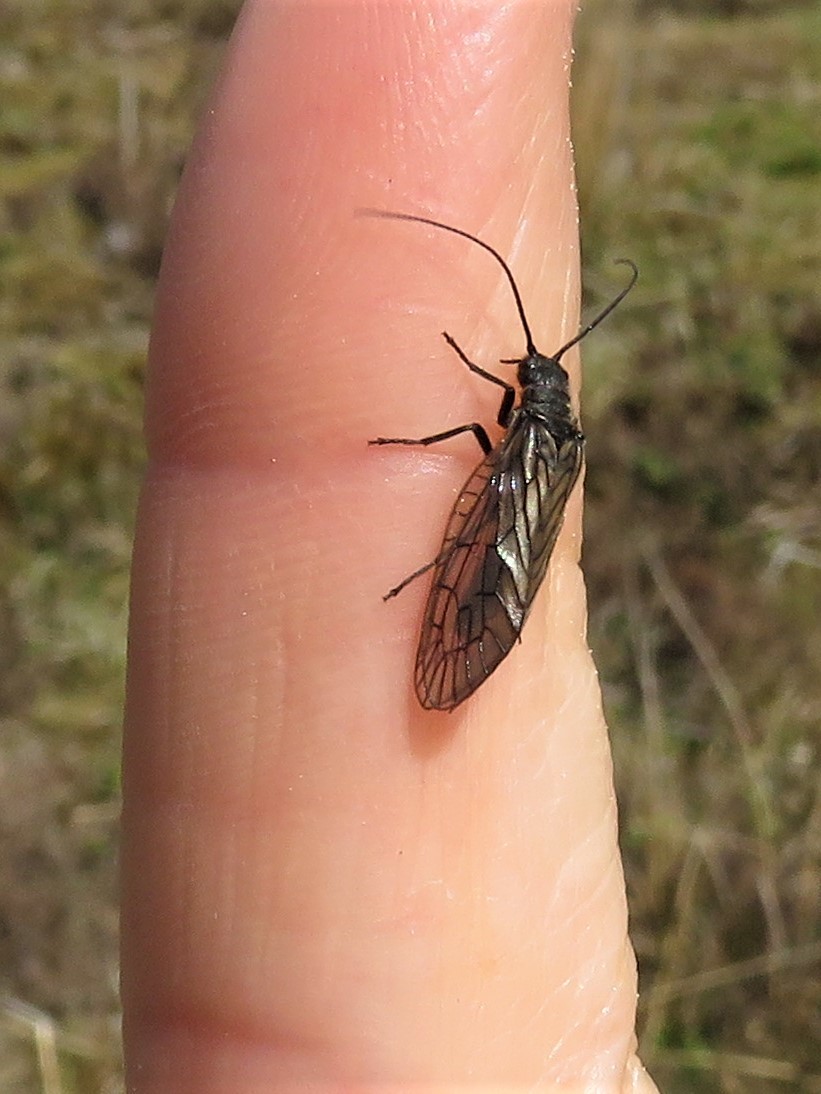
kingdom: Animalia
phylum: Arthropoda
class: Insecta
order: Megaloptera
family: Sialidae
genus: Sialis
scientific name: Sialis
